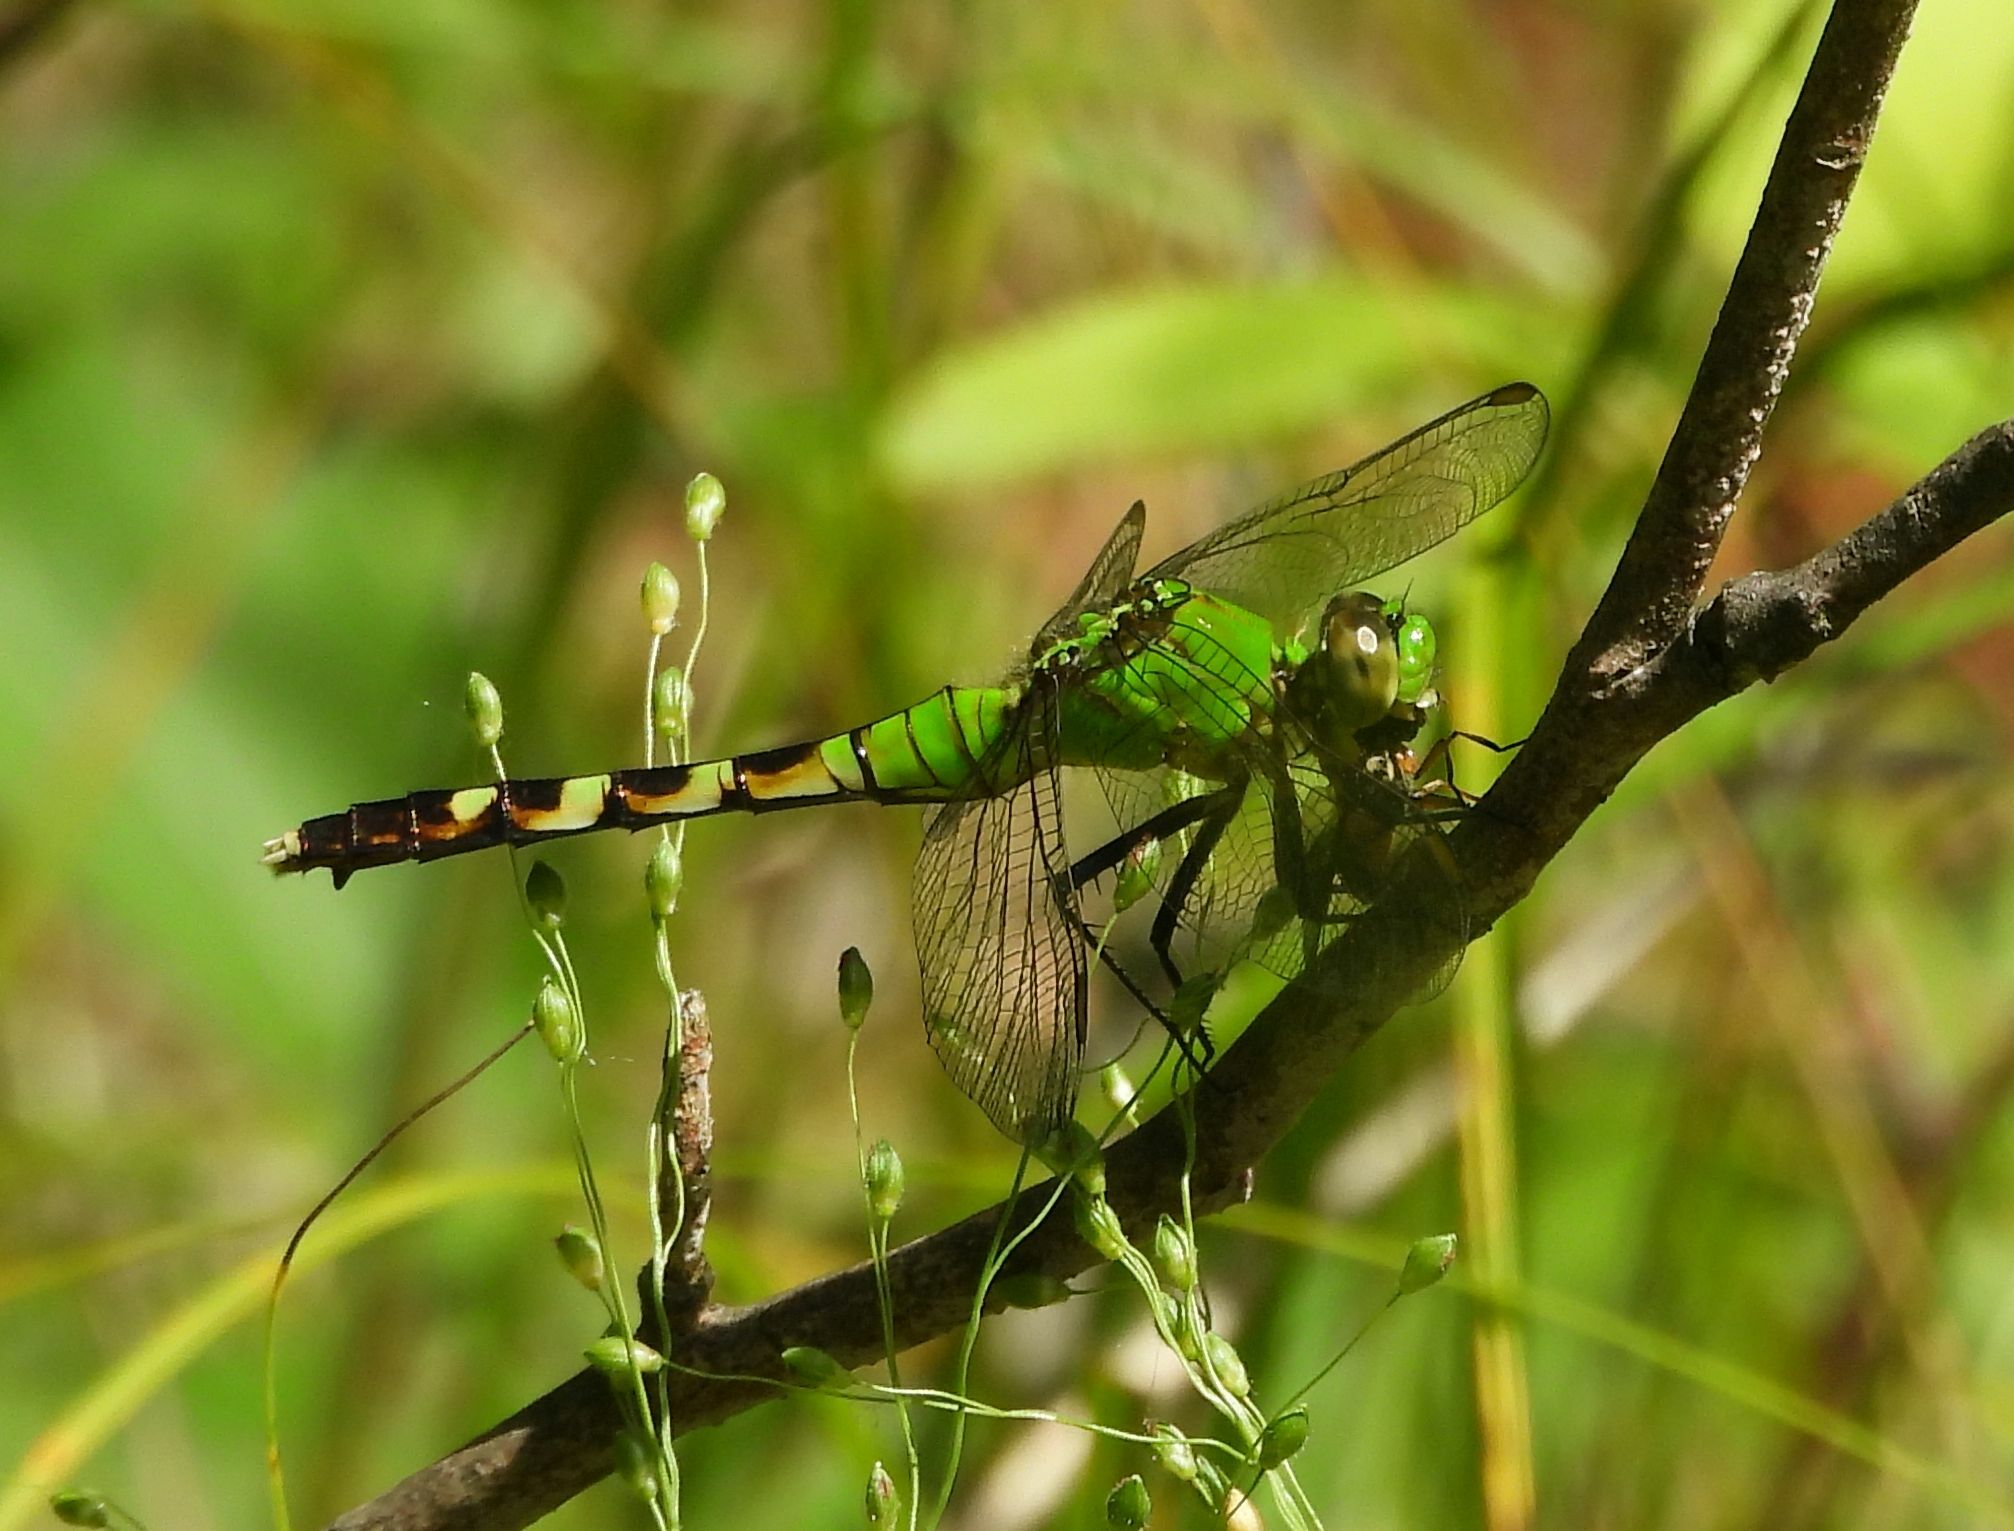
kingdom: Animalia
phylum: Arthropoda
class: Insecta
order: Odonata
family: Libellulidae
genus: Erythemis
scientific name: Erythemis simplicicollis
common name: Eastern pondhawk
